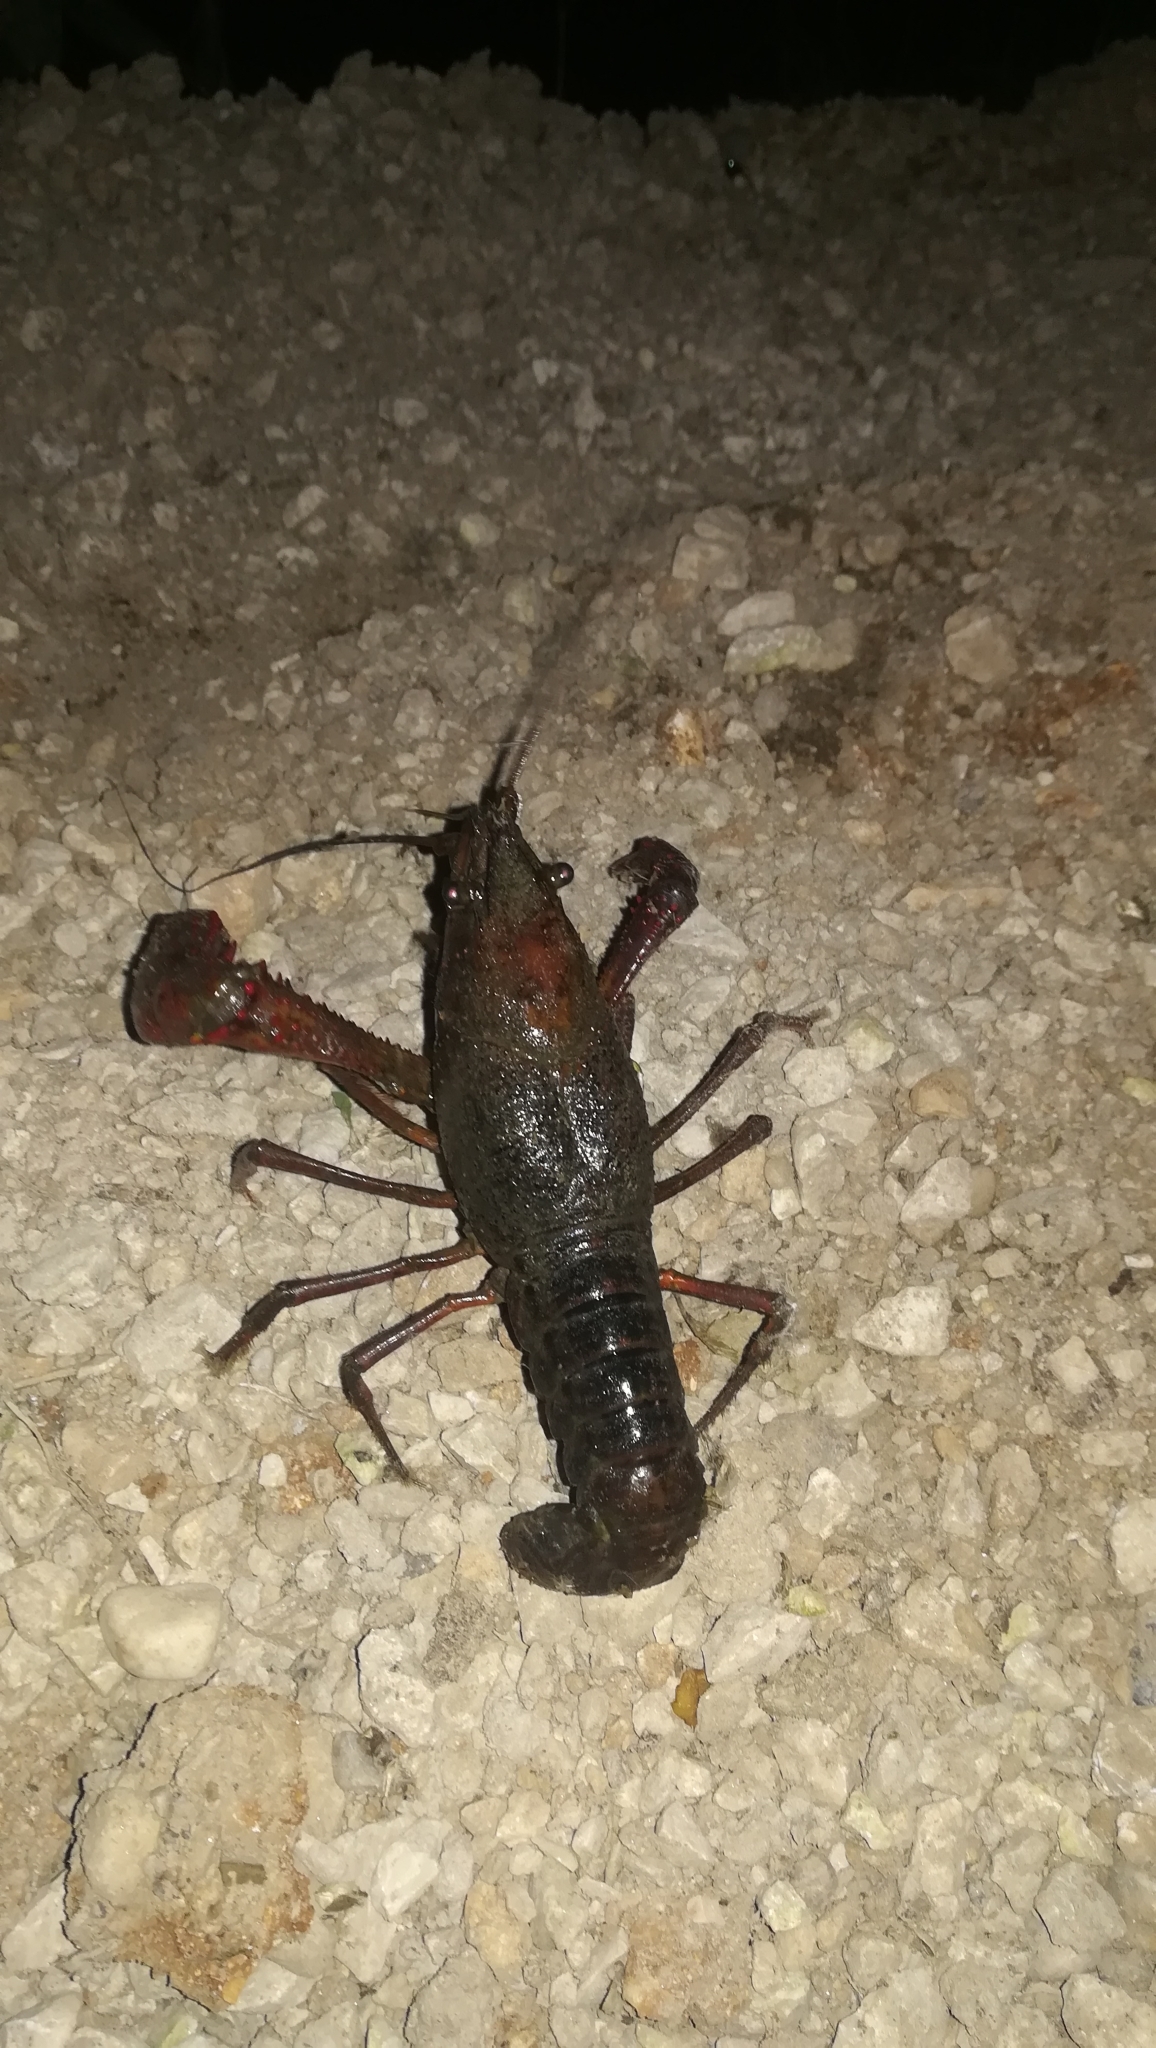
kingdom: Animalia
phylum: Arthropoda
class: Malacostraca
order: Decapoda
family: Cambaridae
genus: Procambarus
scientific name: Procambarus clarkii
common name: Red swamp crayfish
